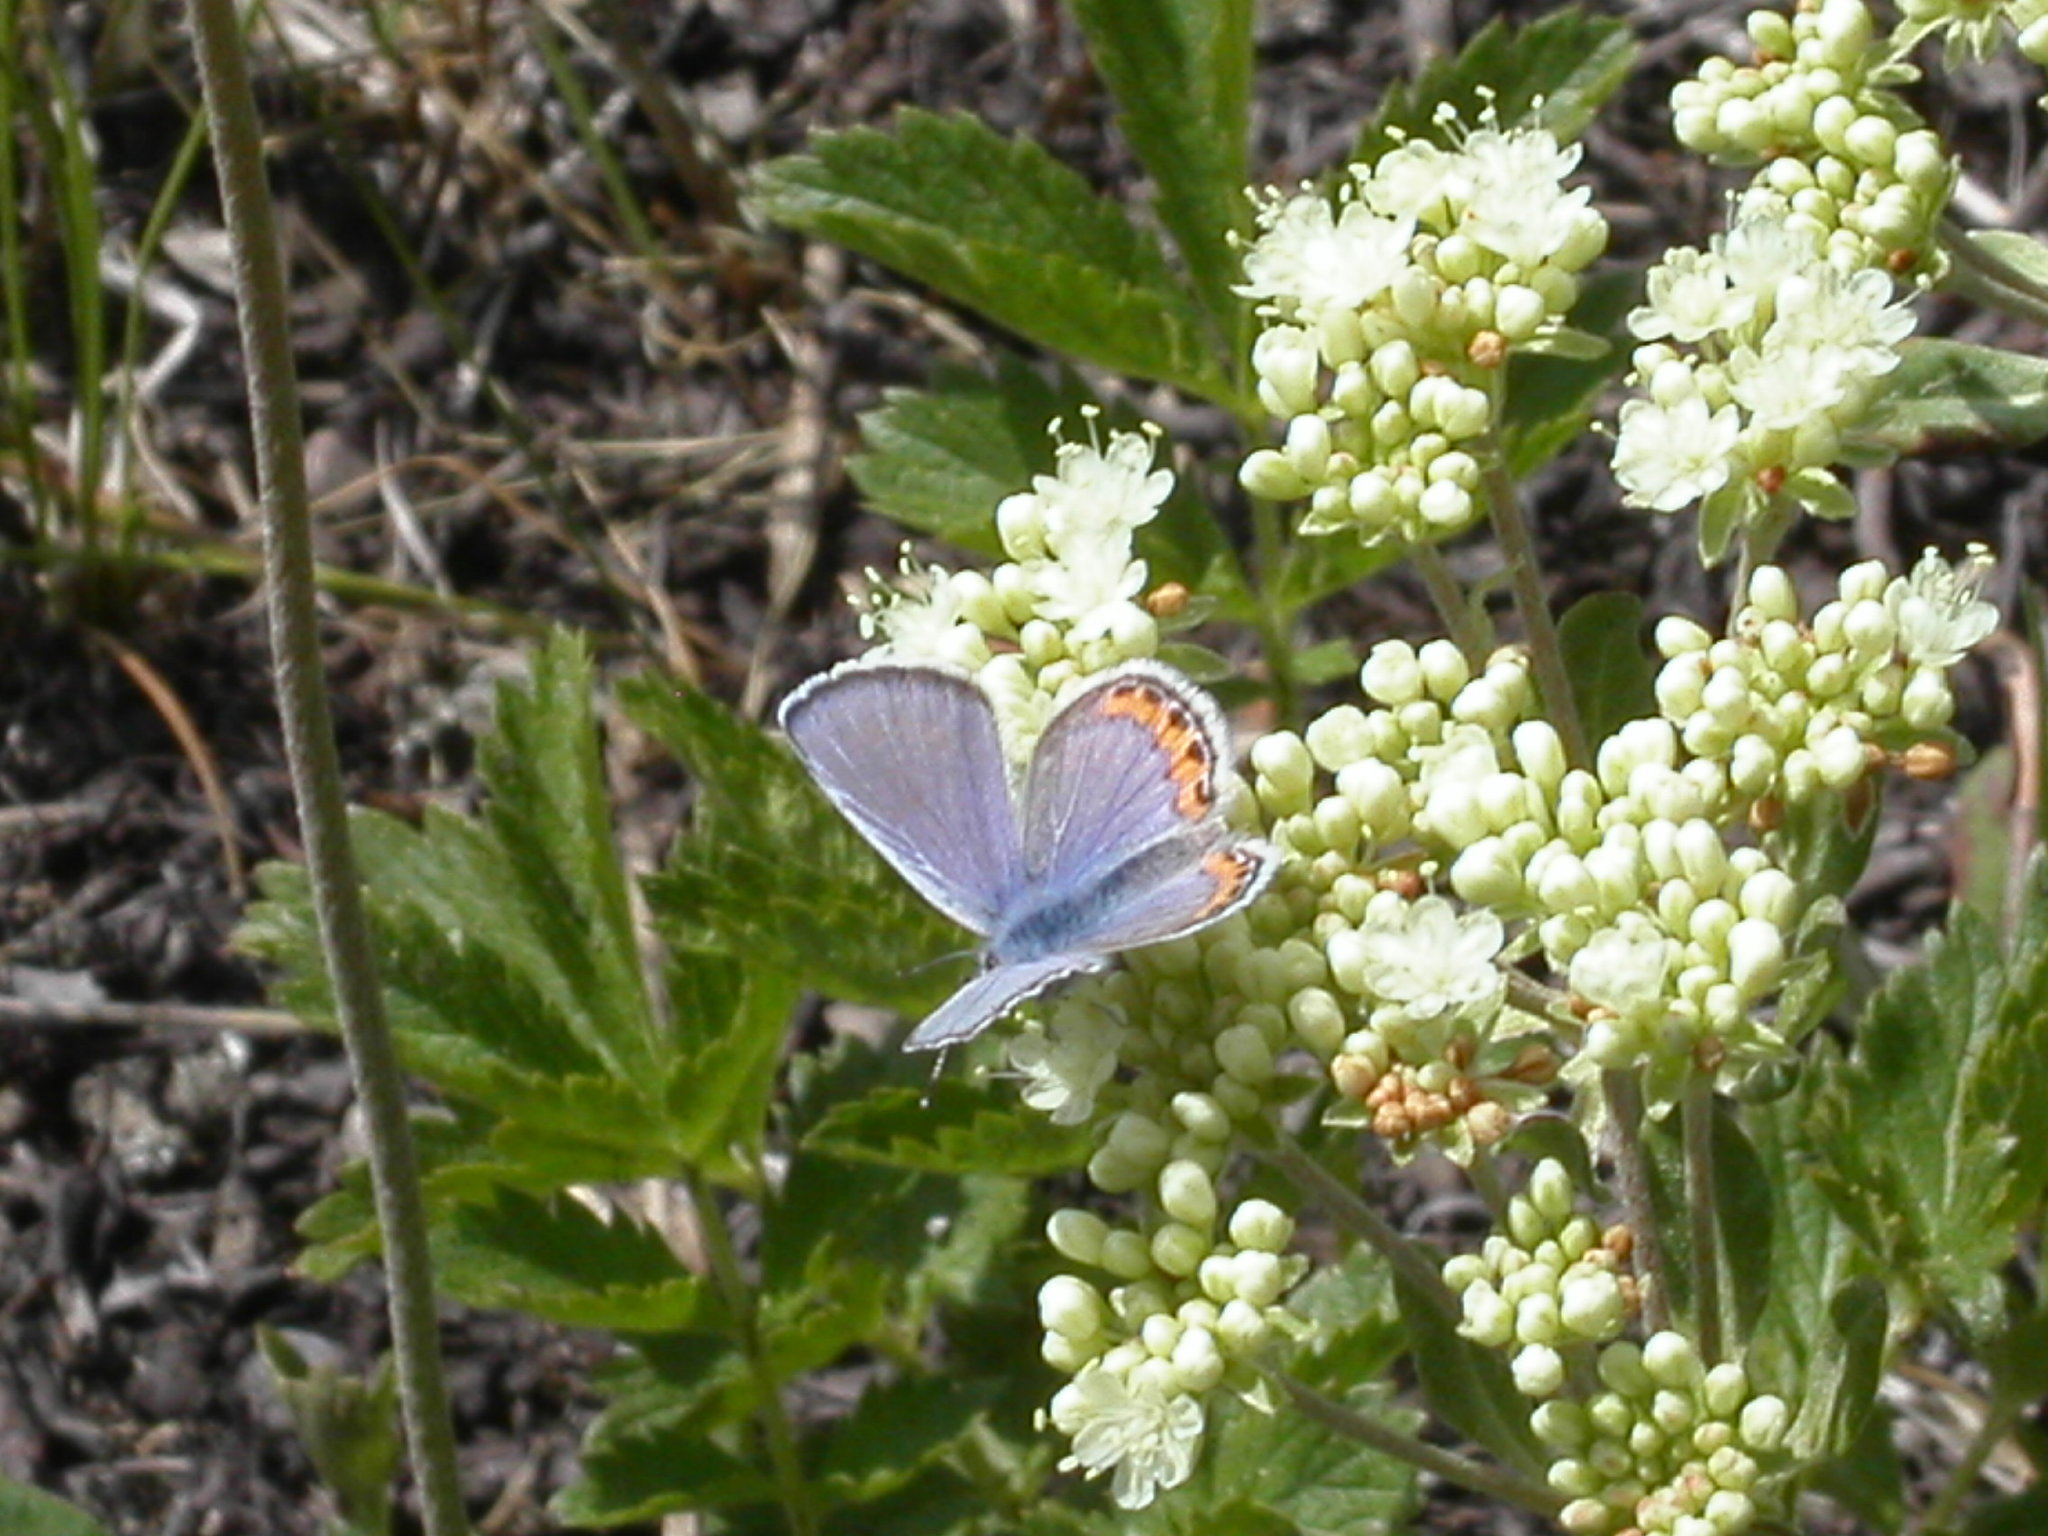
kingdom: Animalia
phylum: Arthropoda
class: Insecta
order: Lepidoptera
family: Lycaenidae
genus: Icaricia
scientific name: Icaricia lupini
